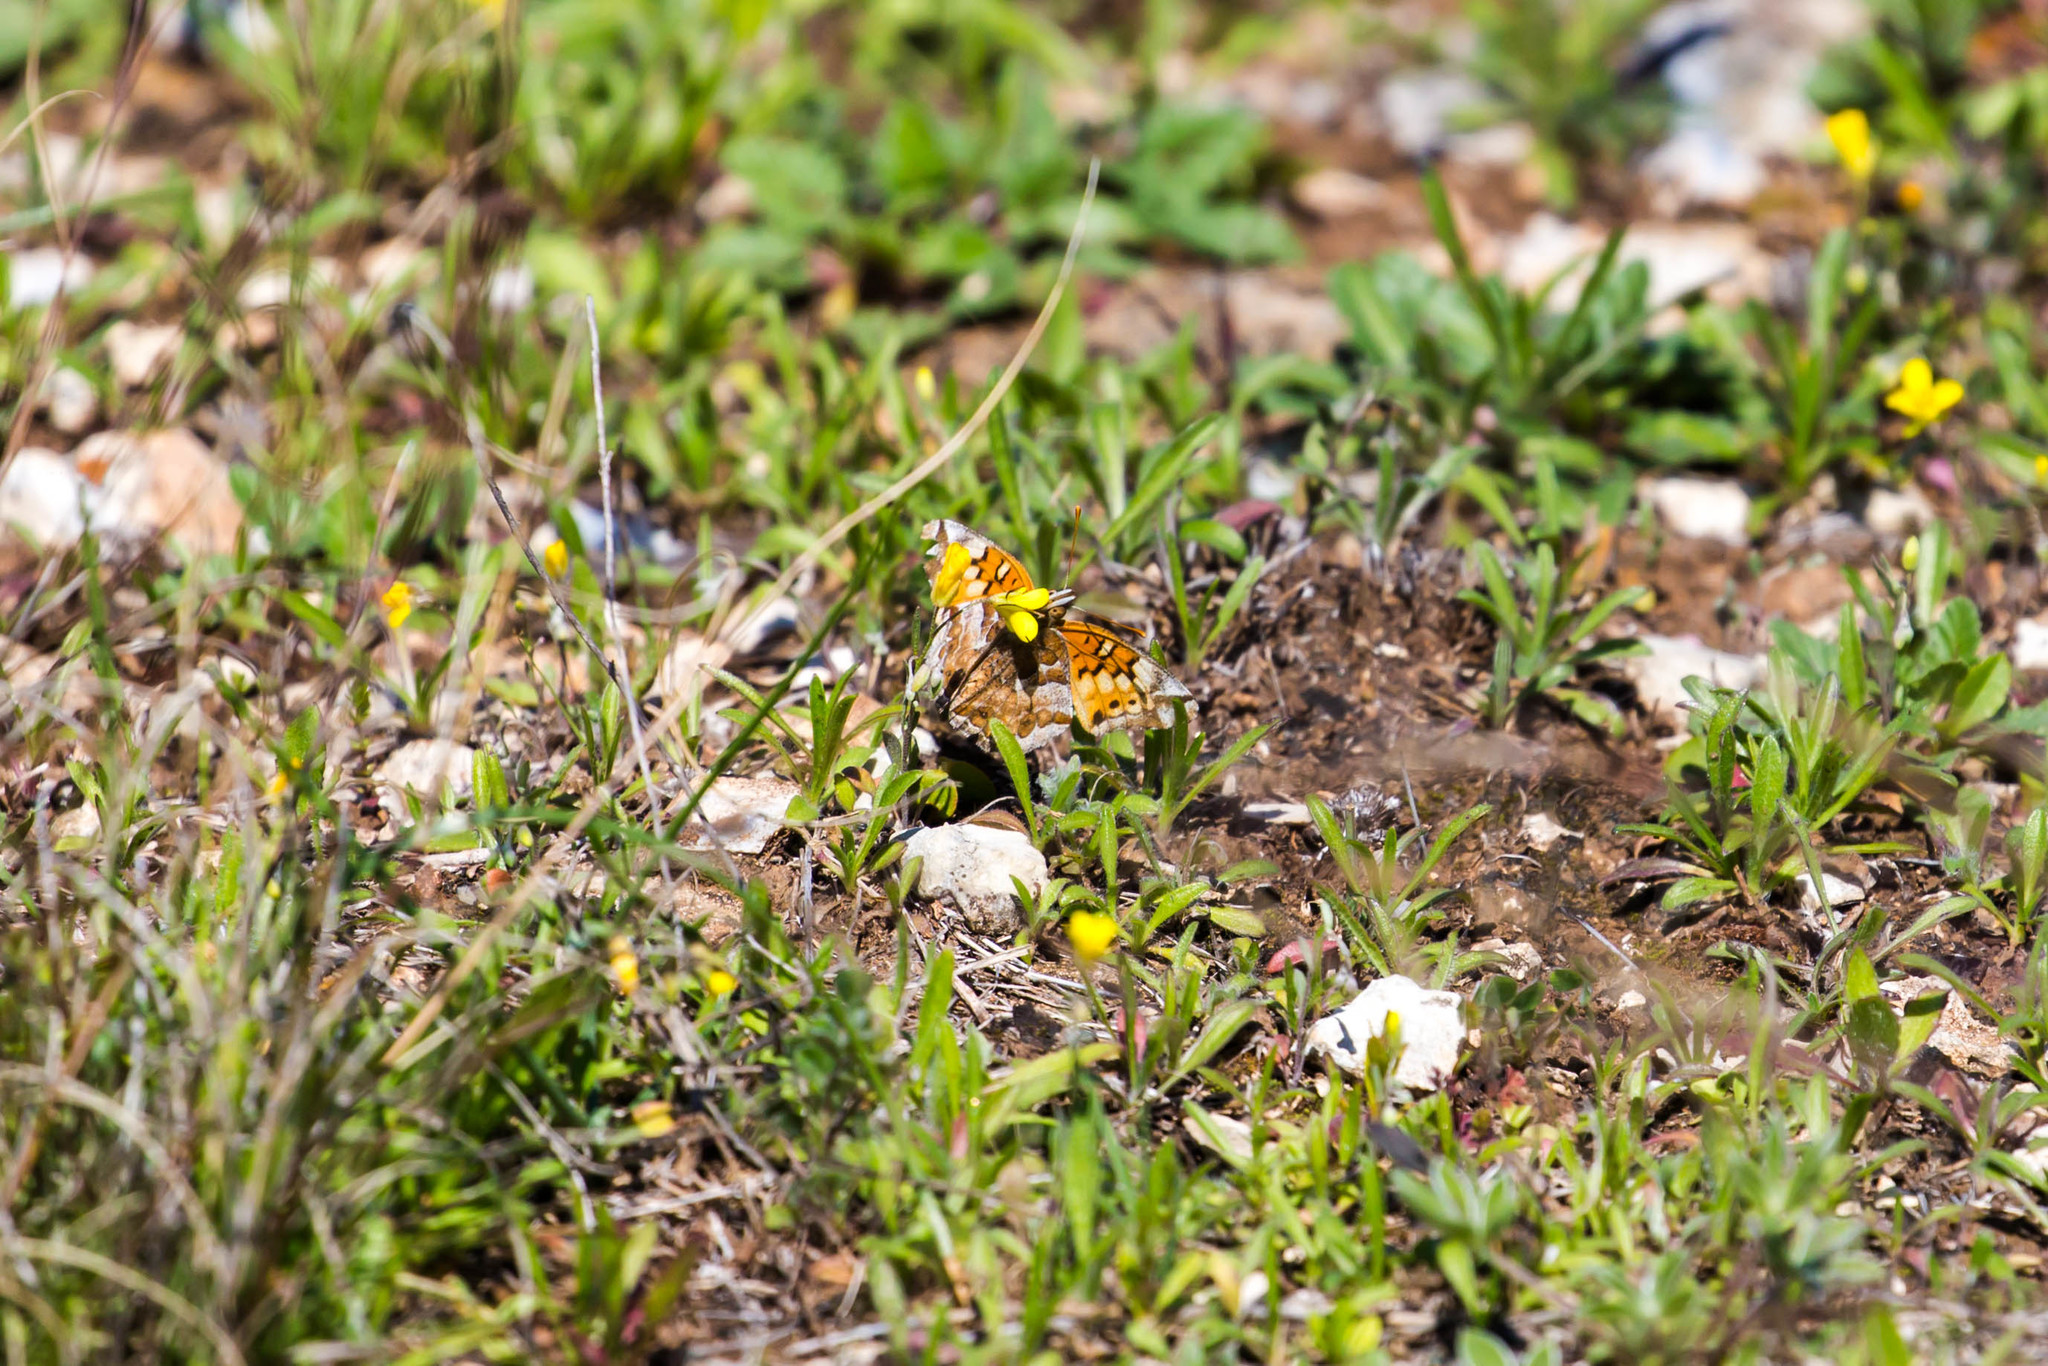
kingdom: Animalia
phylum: Arthropoda
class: Insecta
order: Lepidoptera
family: Nymphalidae
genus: Euptoieta
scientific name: Euptoieta claudia
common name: Variegated fritillary
